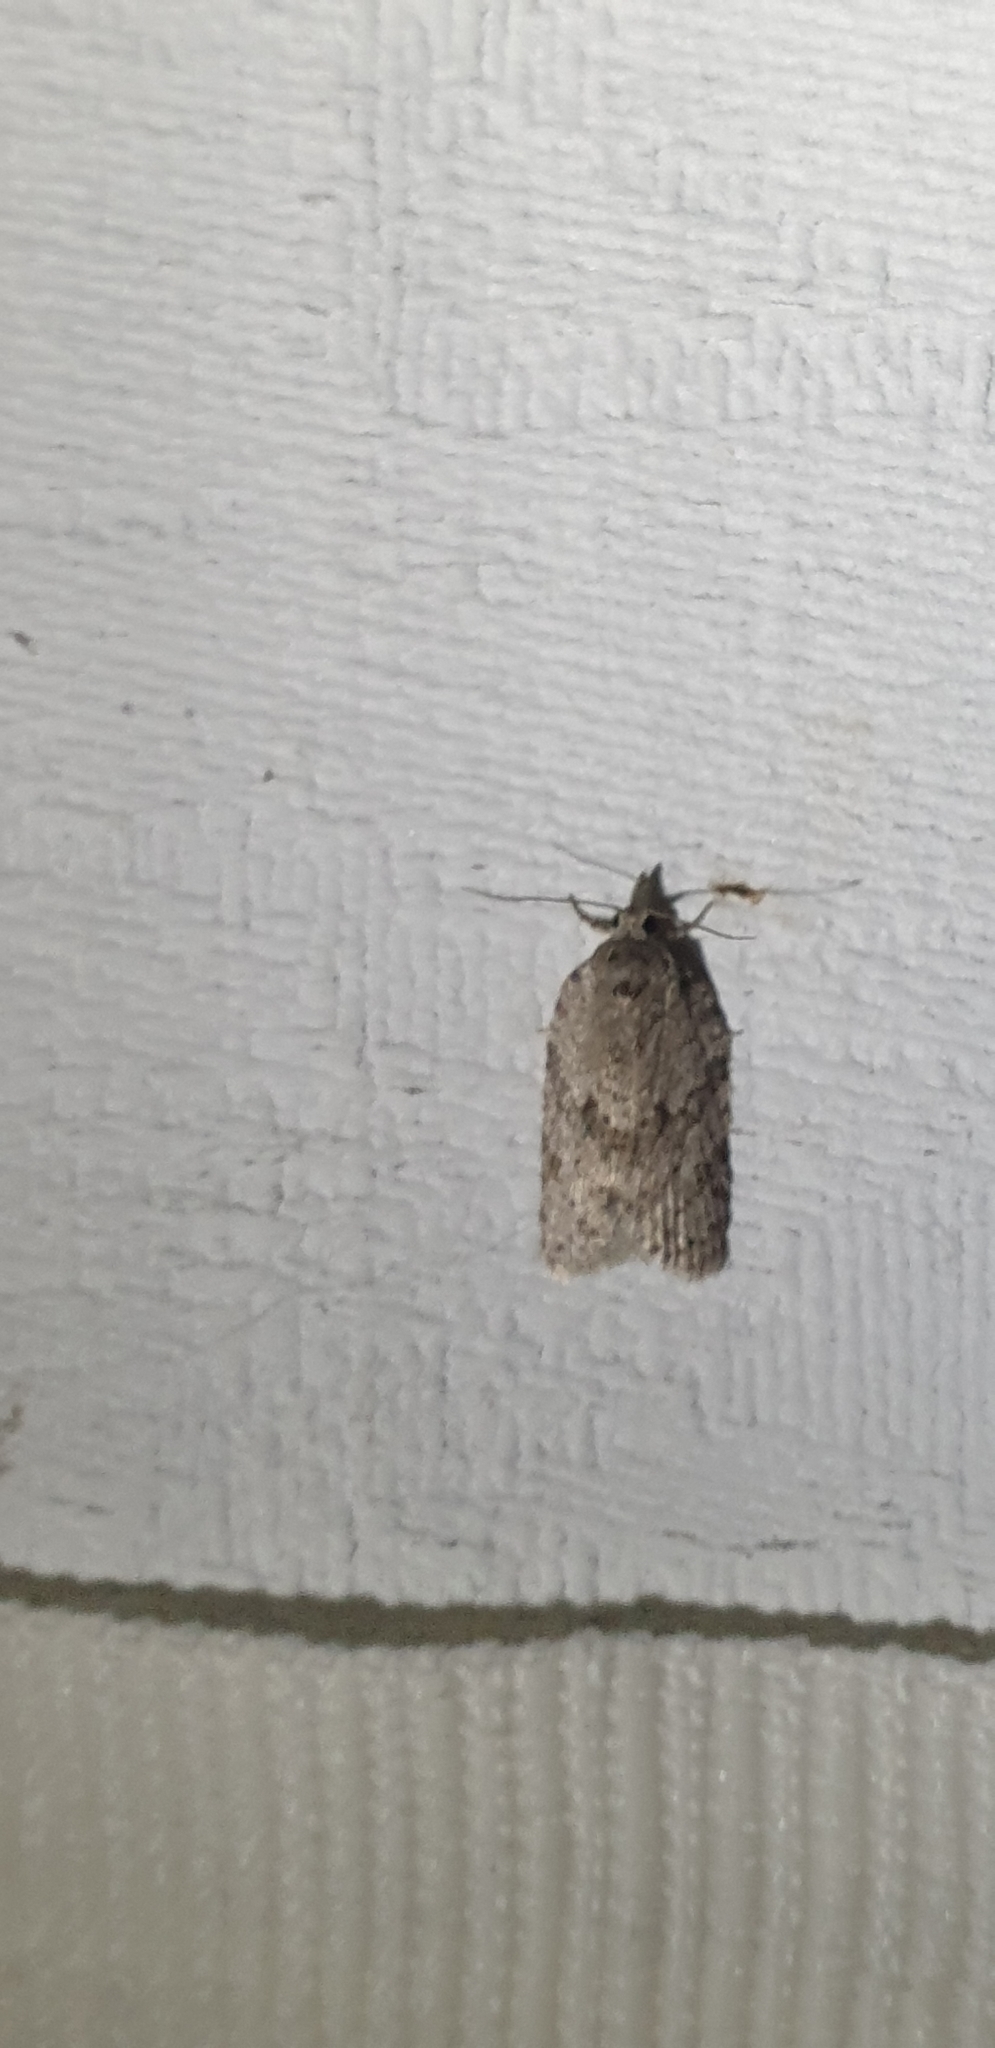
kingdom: Animalia
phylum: Arthropoda
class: Insecta
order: Lepidoptera
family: Tortricidae
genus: Isotenes
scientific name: Isotenes miserana
